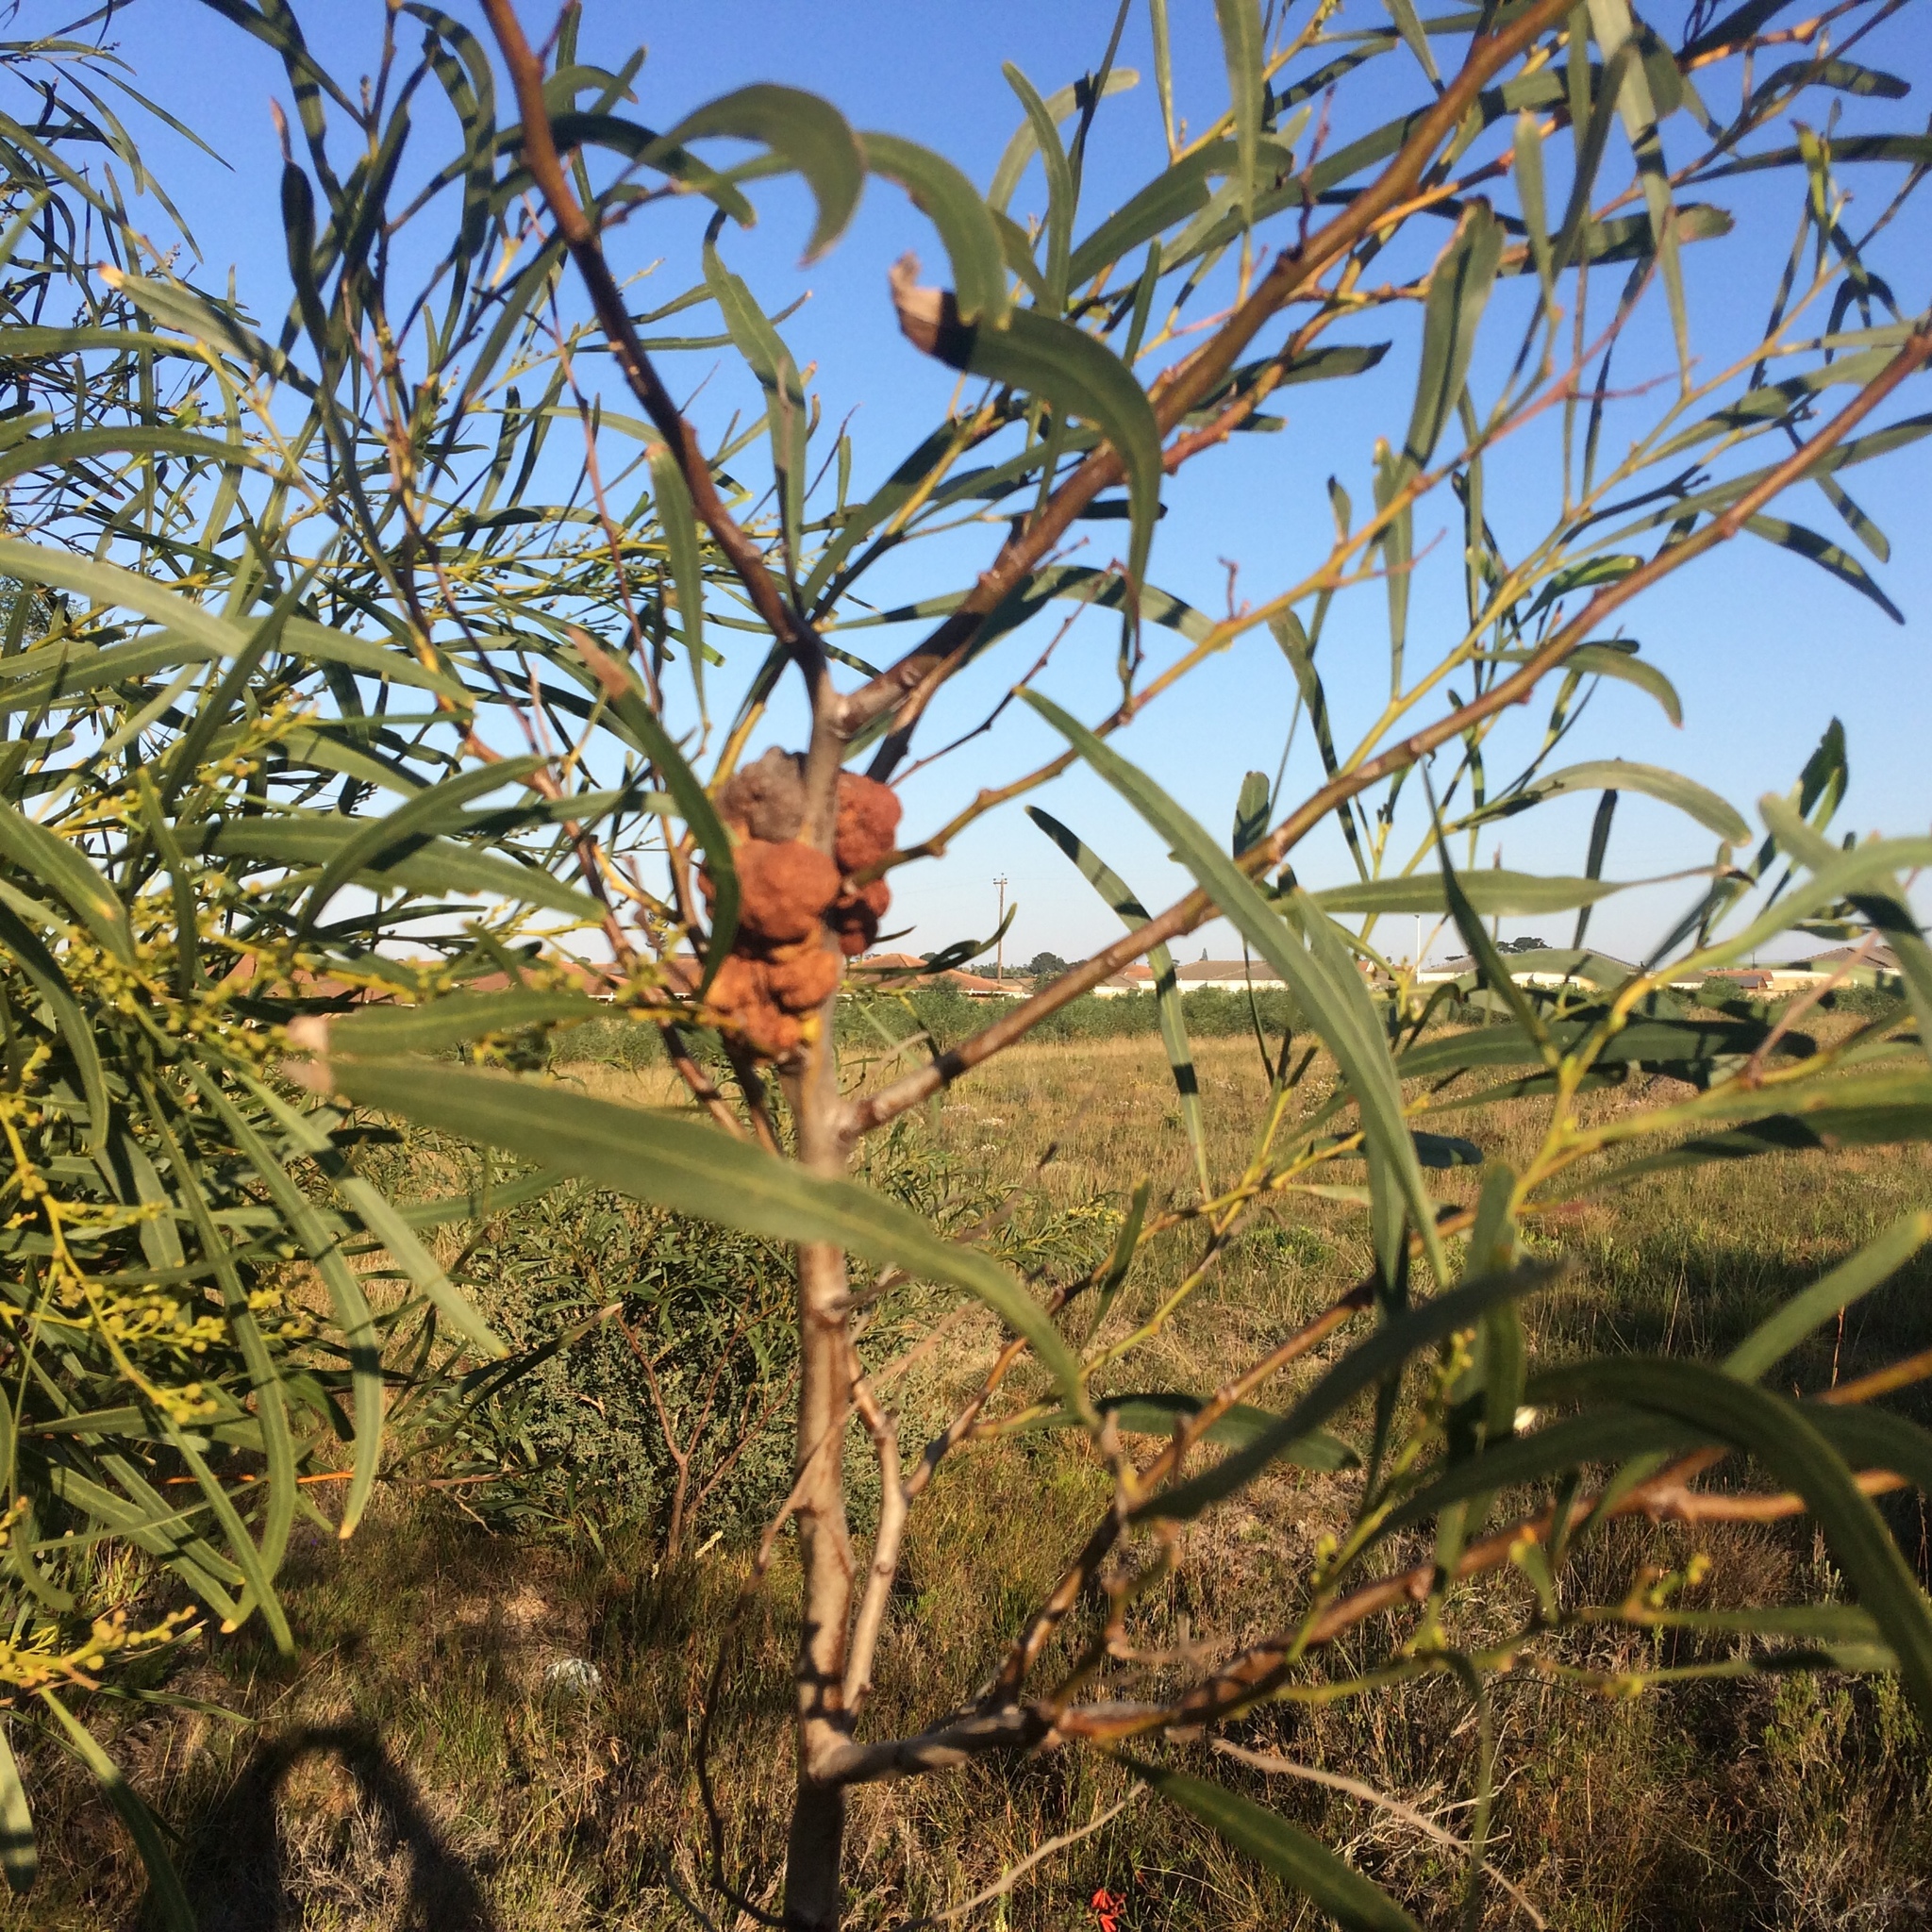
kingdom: Fungi
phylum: Basidiomycota
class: Pucciniomycetes
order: Pucciniales
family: Uromycladiaceae
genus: Uromycladium
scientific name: Uromycladium morrisii
